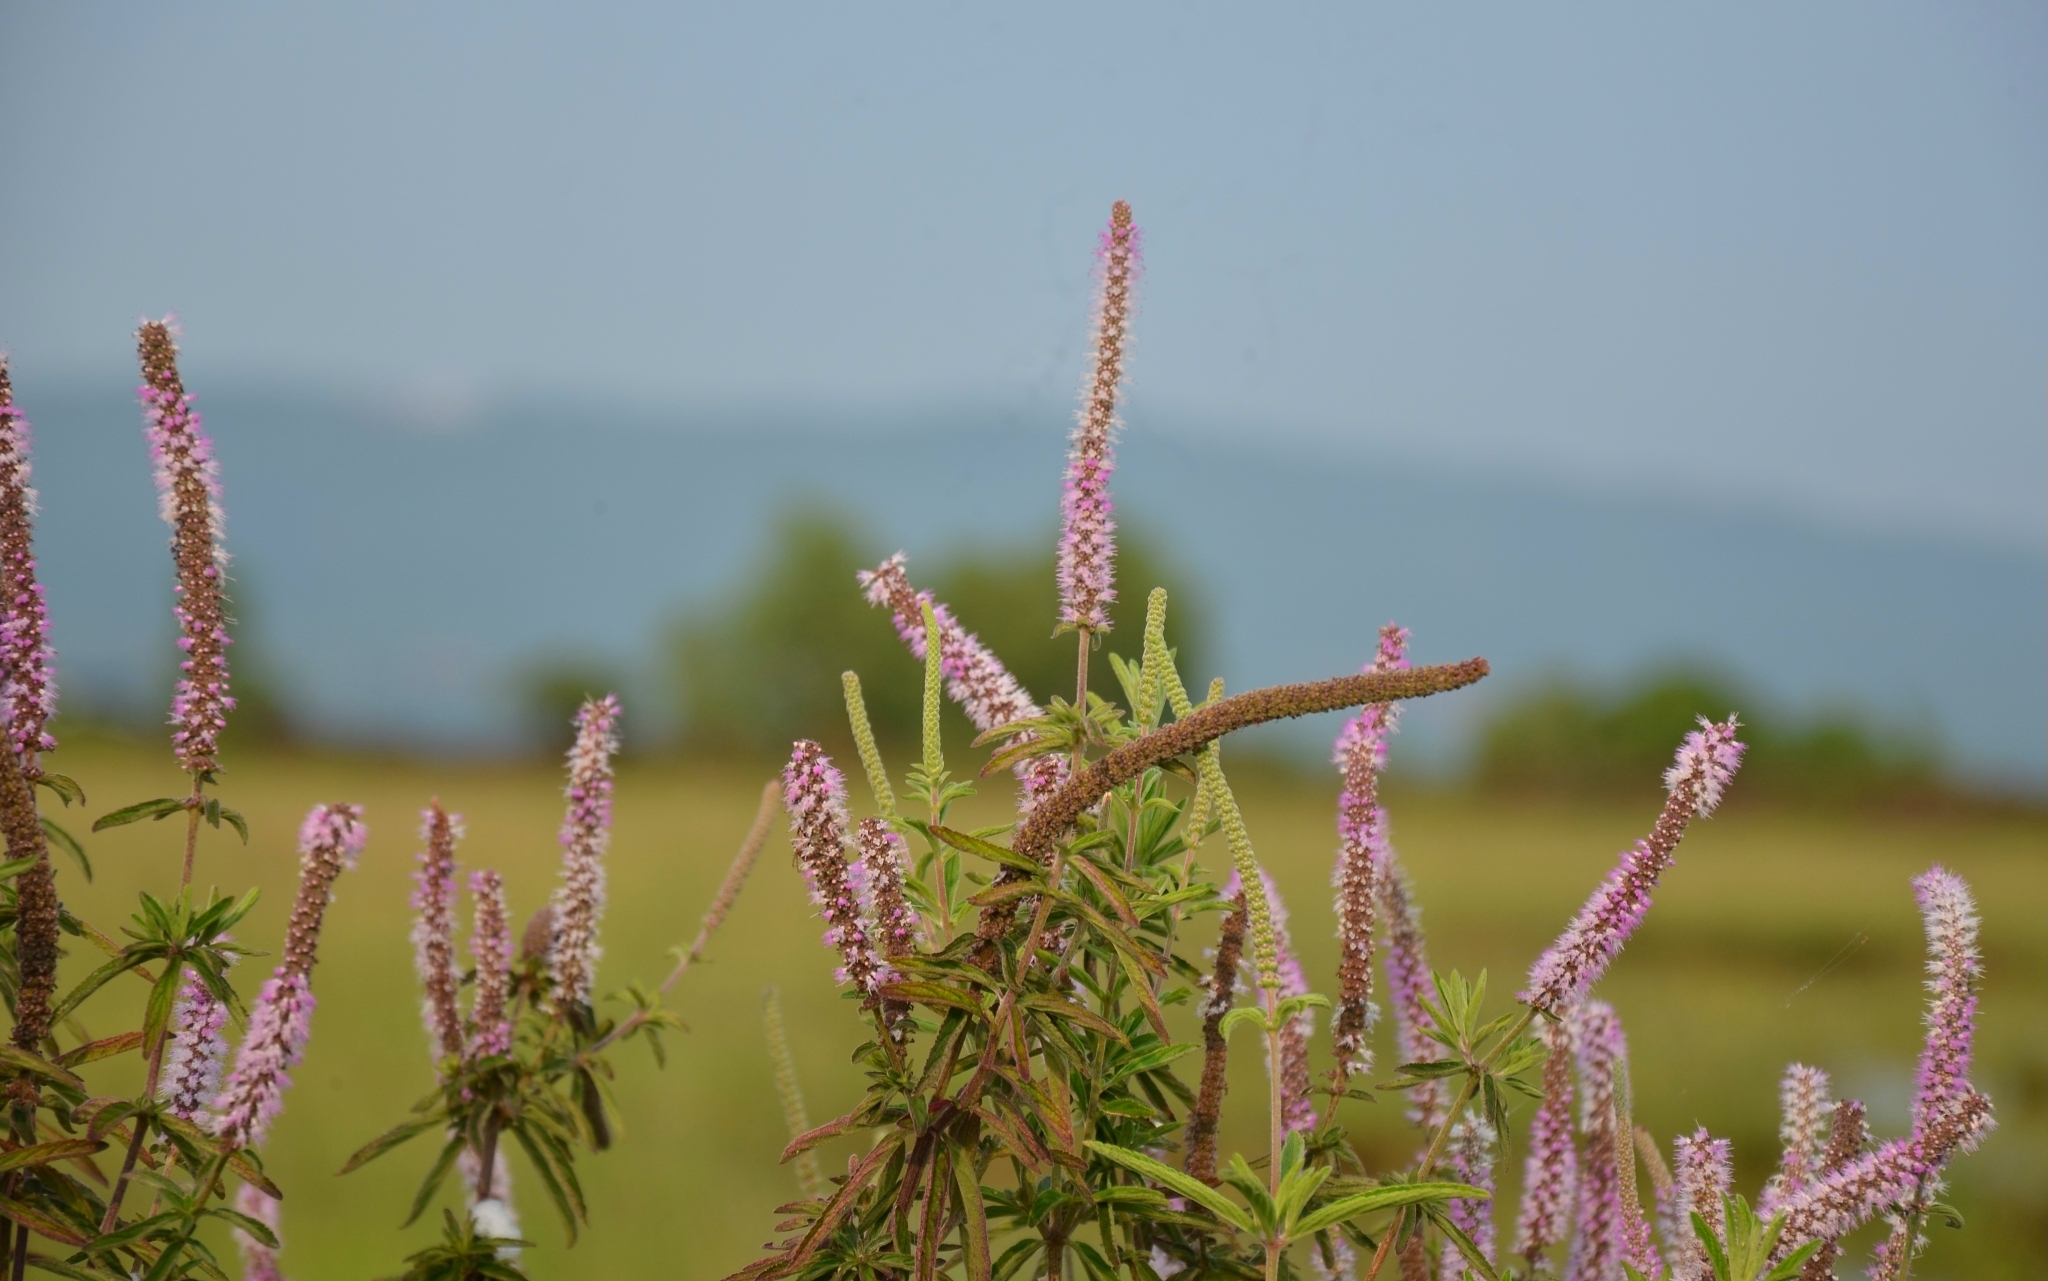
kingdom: Plantae
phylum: Tracheophyta
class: Magnoliopsida
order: Lamiales
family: Lamiaceae
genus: Pogostemon
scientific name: Pogostemon quadrifolius
